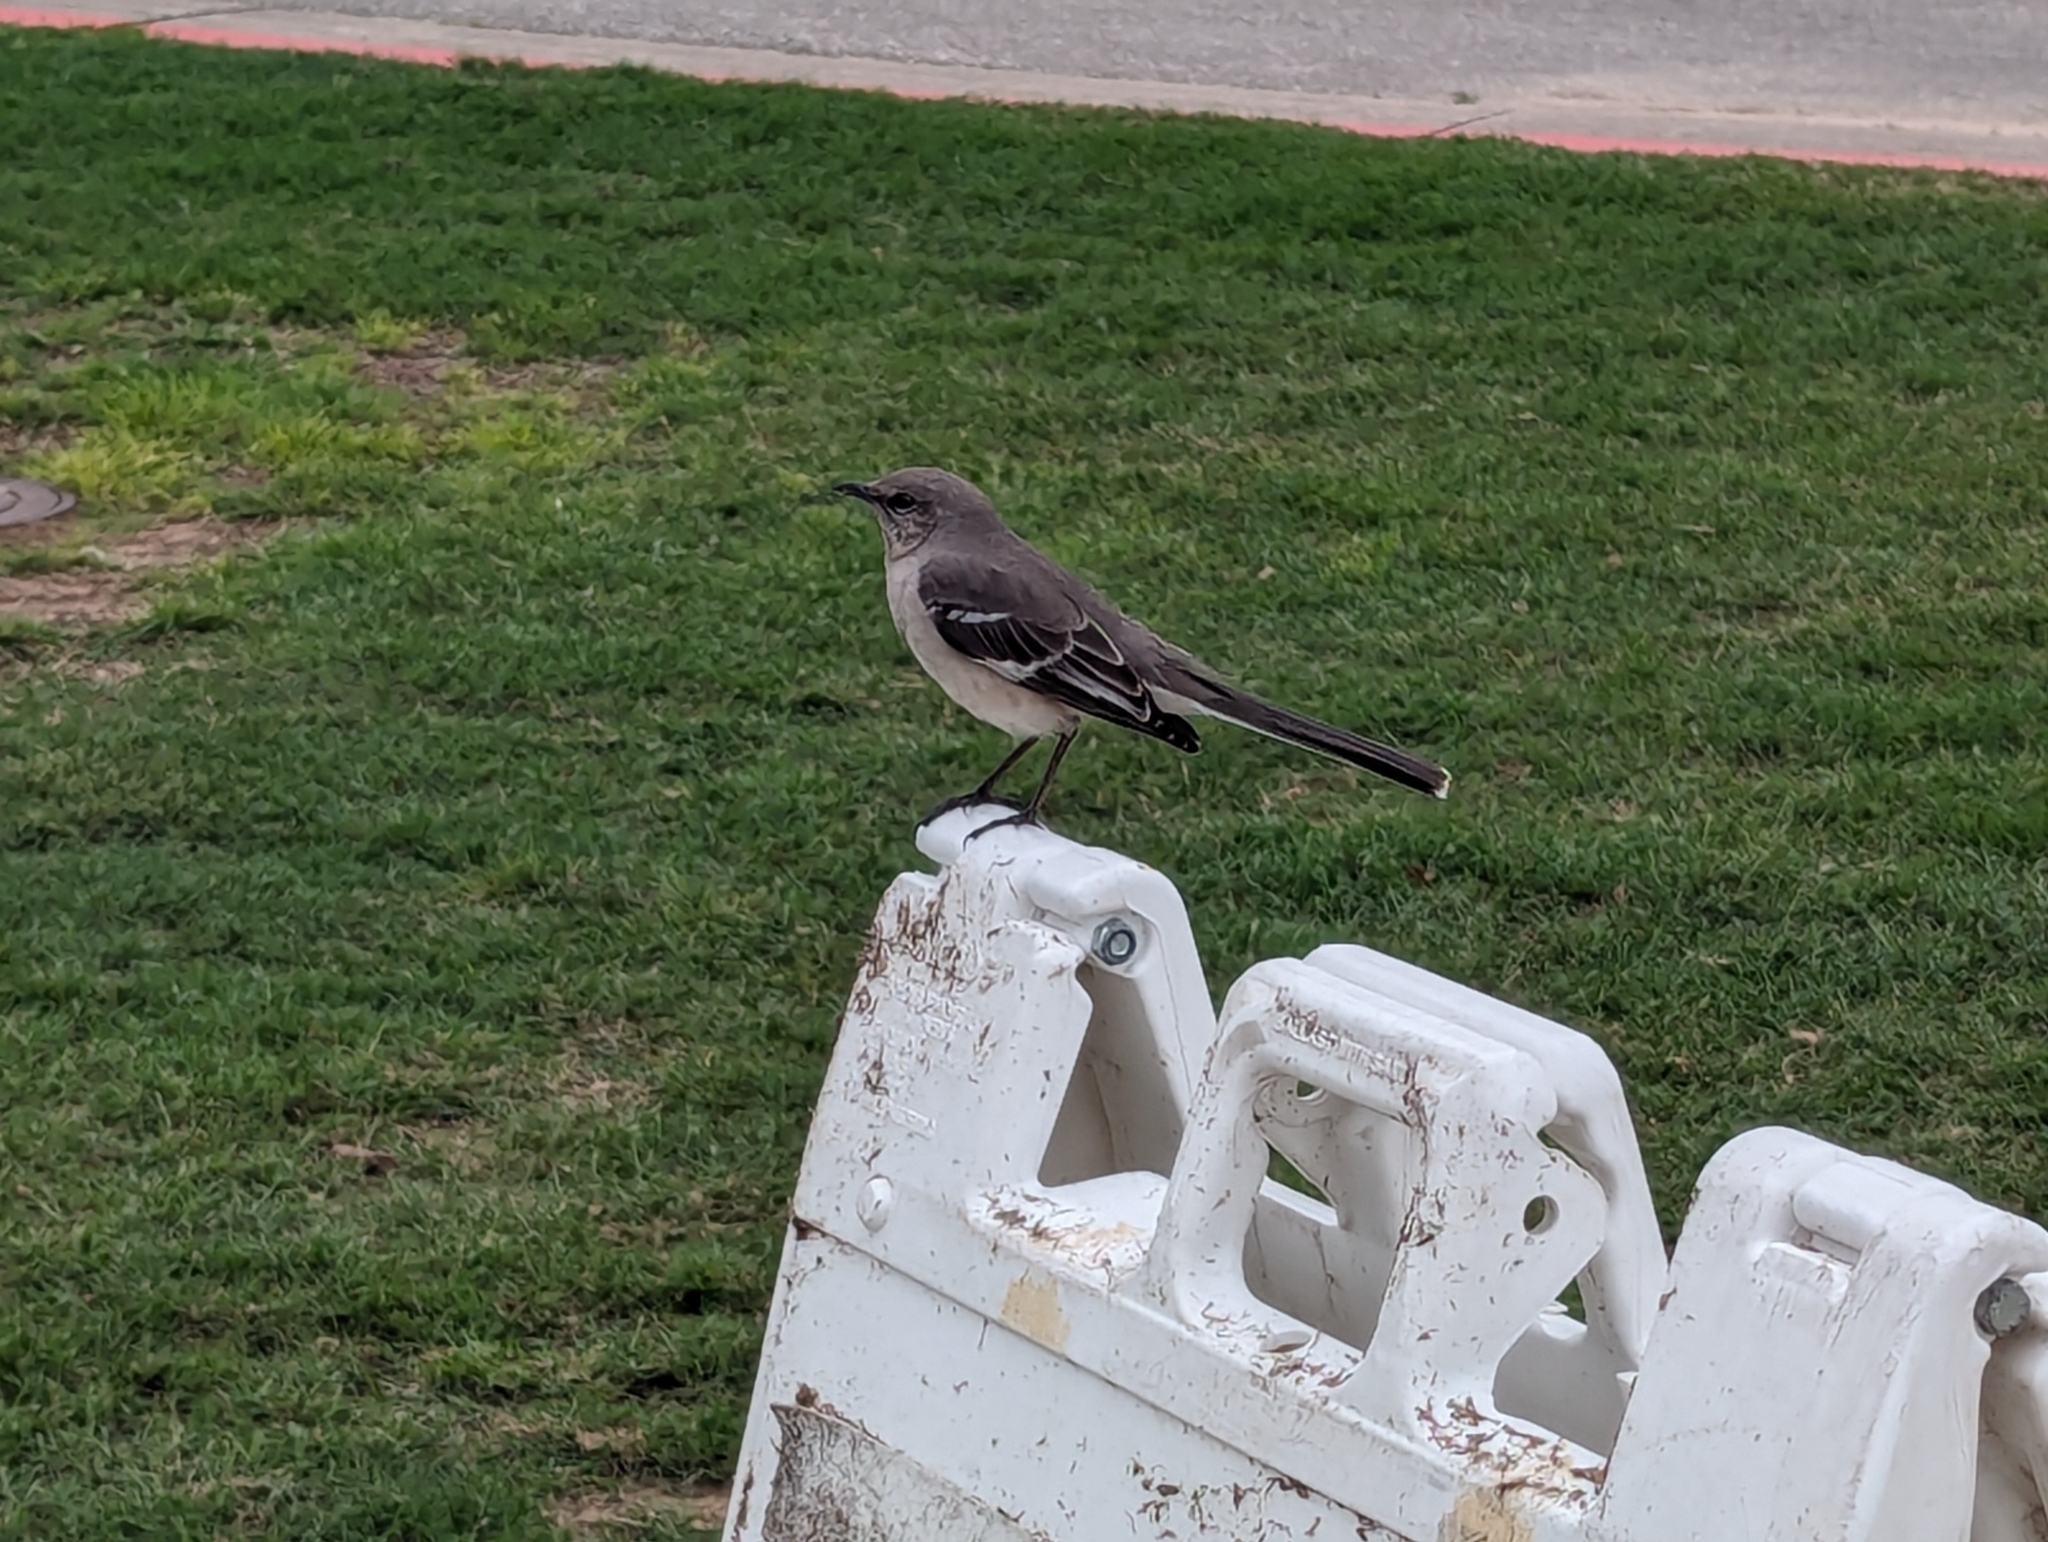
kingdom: Animalia
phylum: Chordata
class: Aves
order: Passeriformes
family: Mimidae
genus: Mimus
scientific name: Mimus polyglottos
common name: Northern mockingbird
